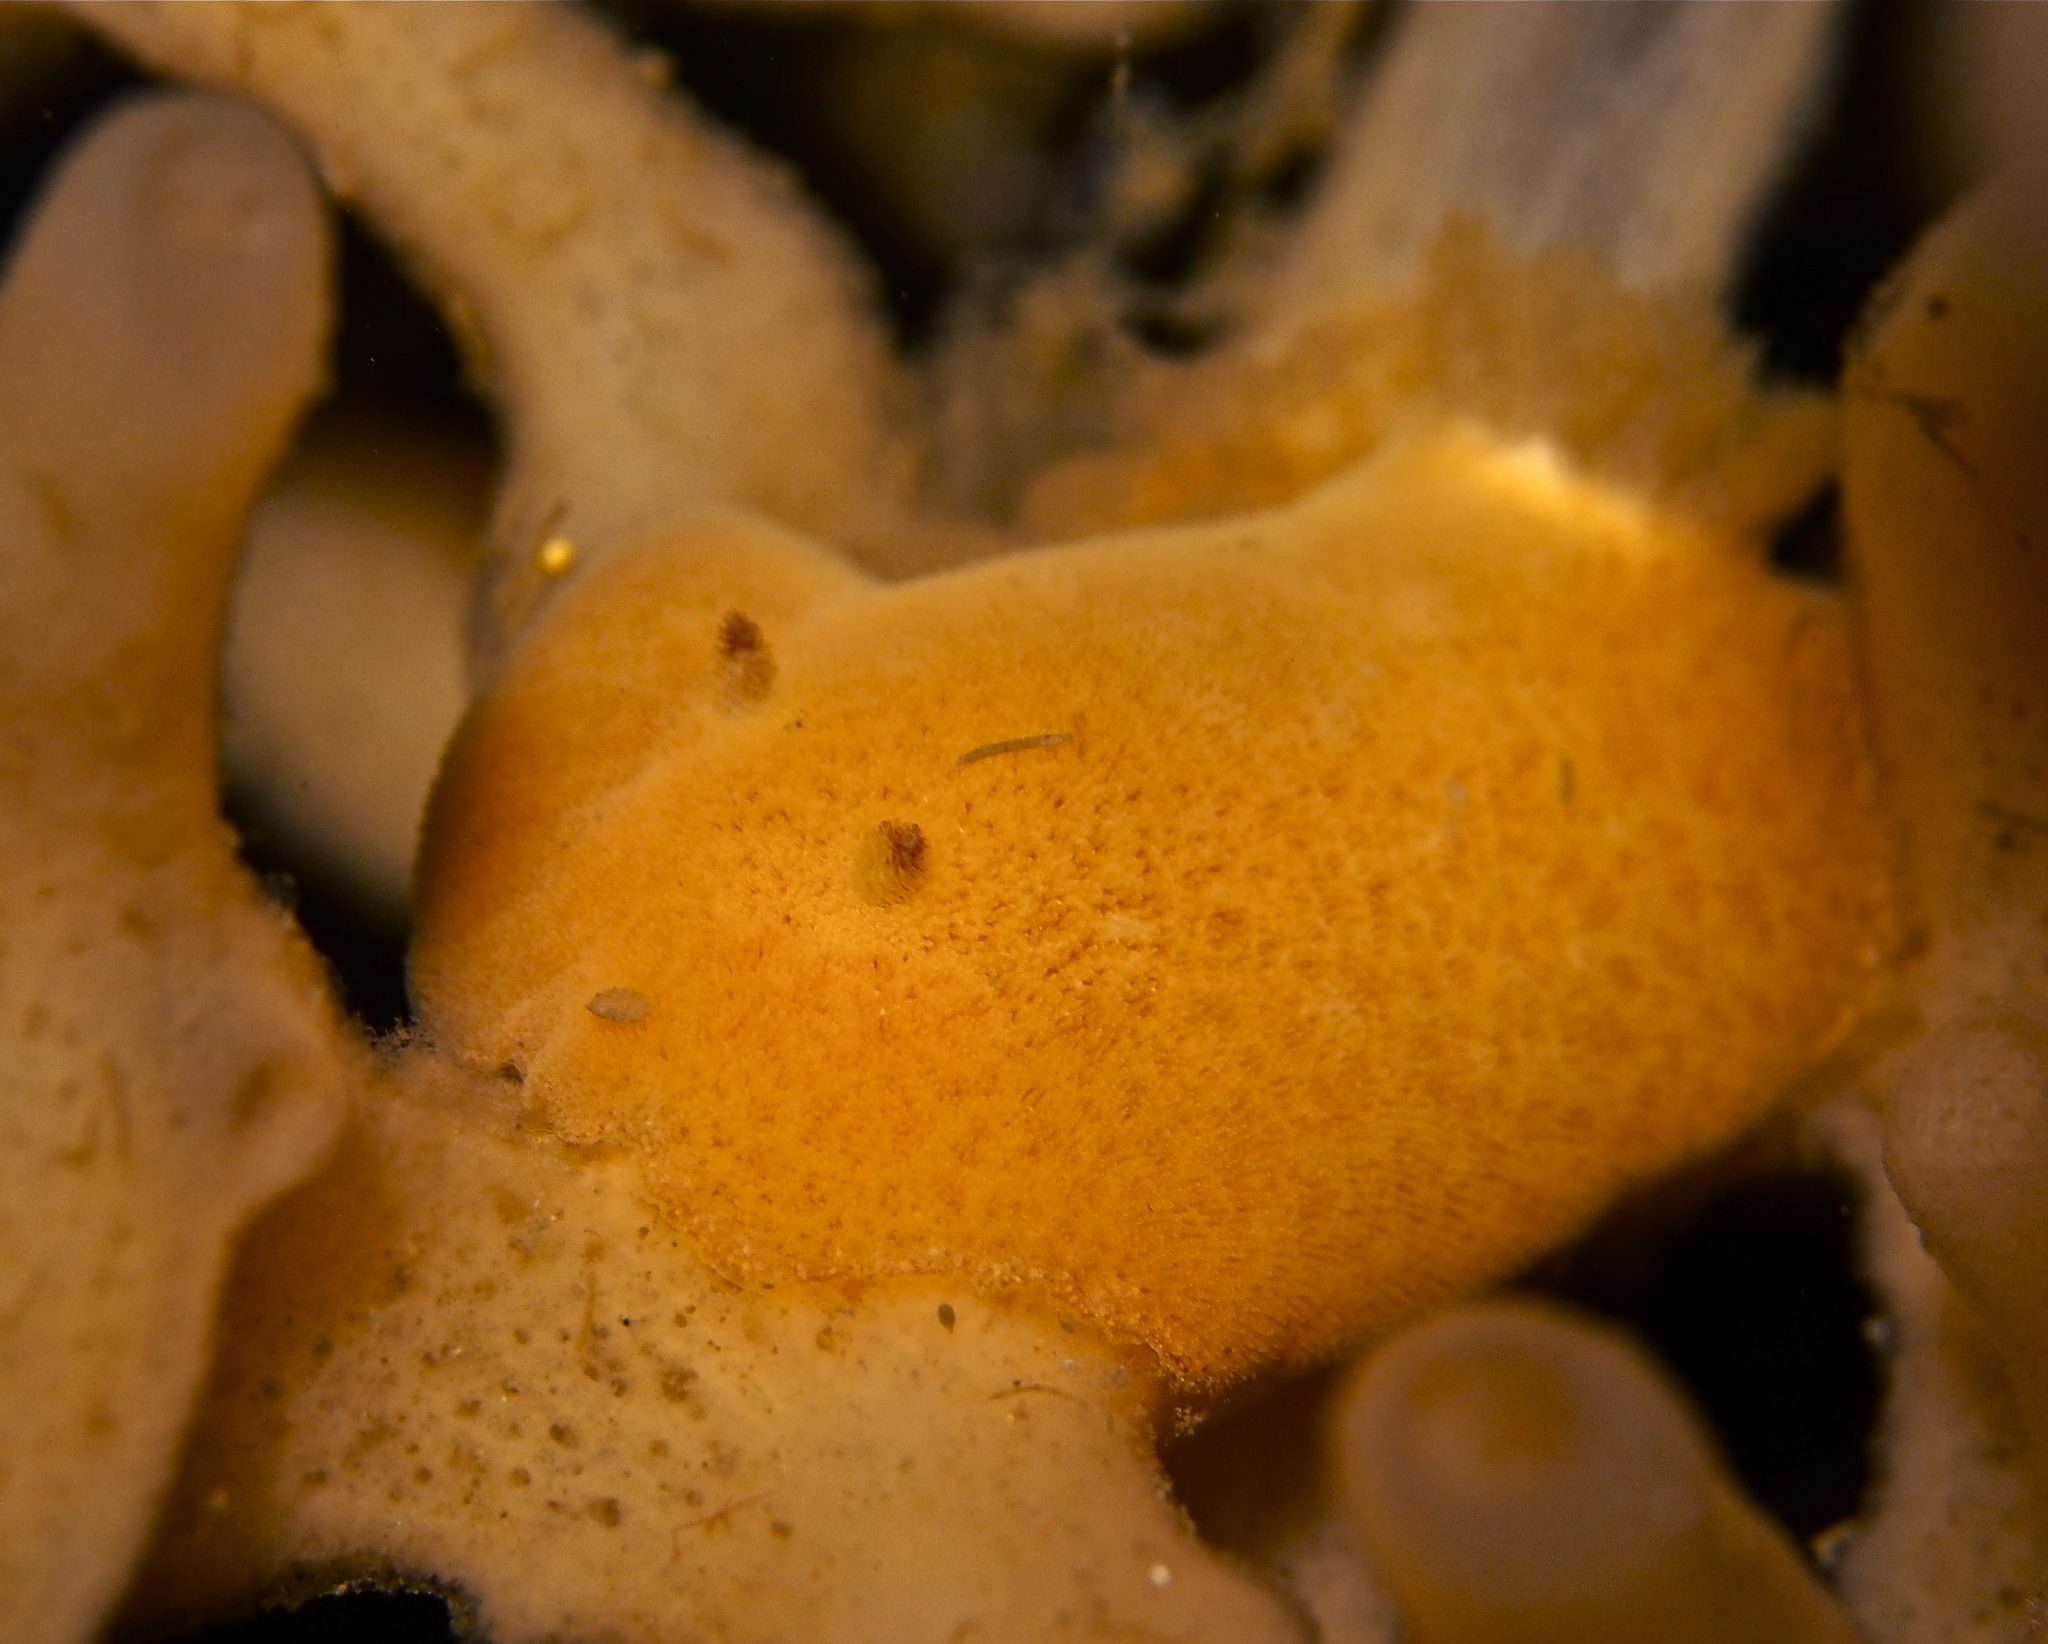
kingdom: Animalia
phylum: Mollusca
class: Gastropoda
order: Nudibranchia
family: Discodorididae
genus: Jorunna
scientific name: Jorunna tomentosa
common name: Grey sea slug
